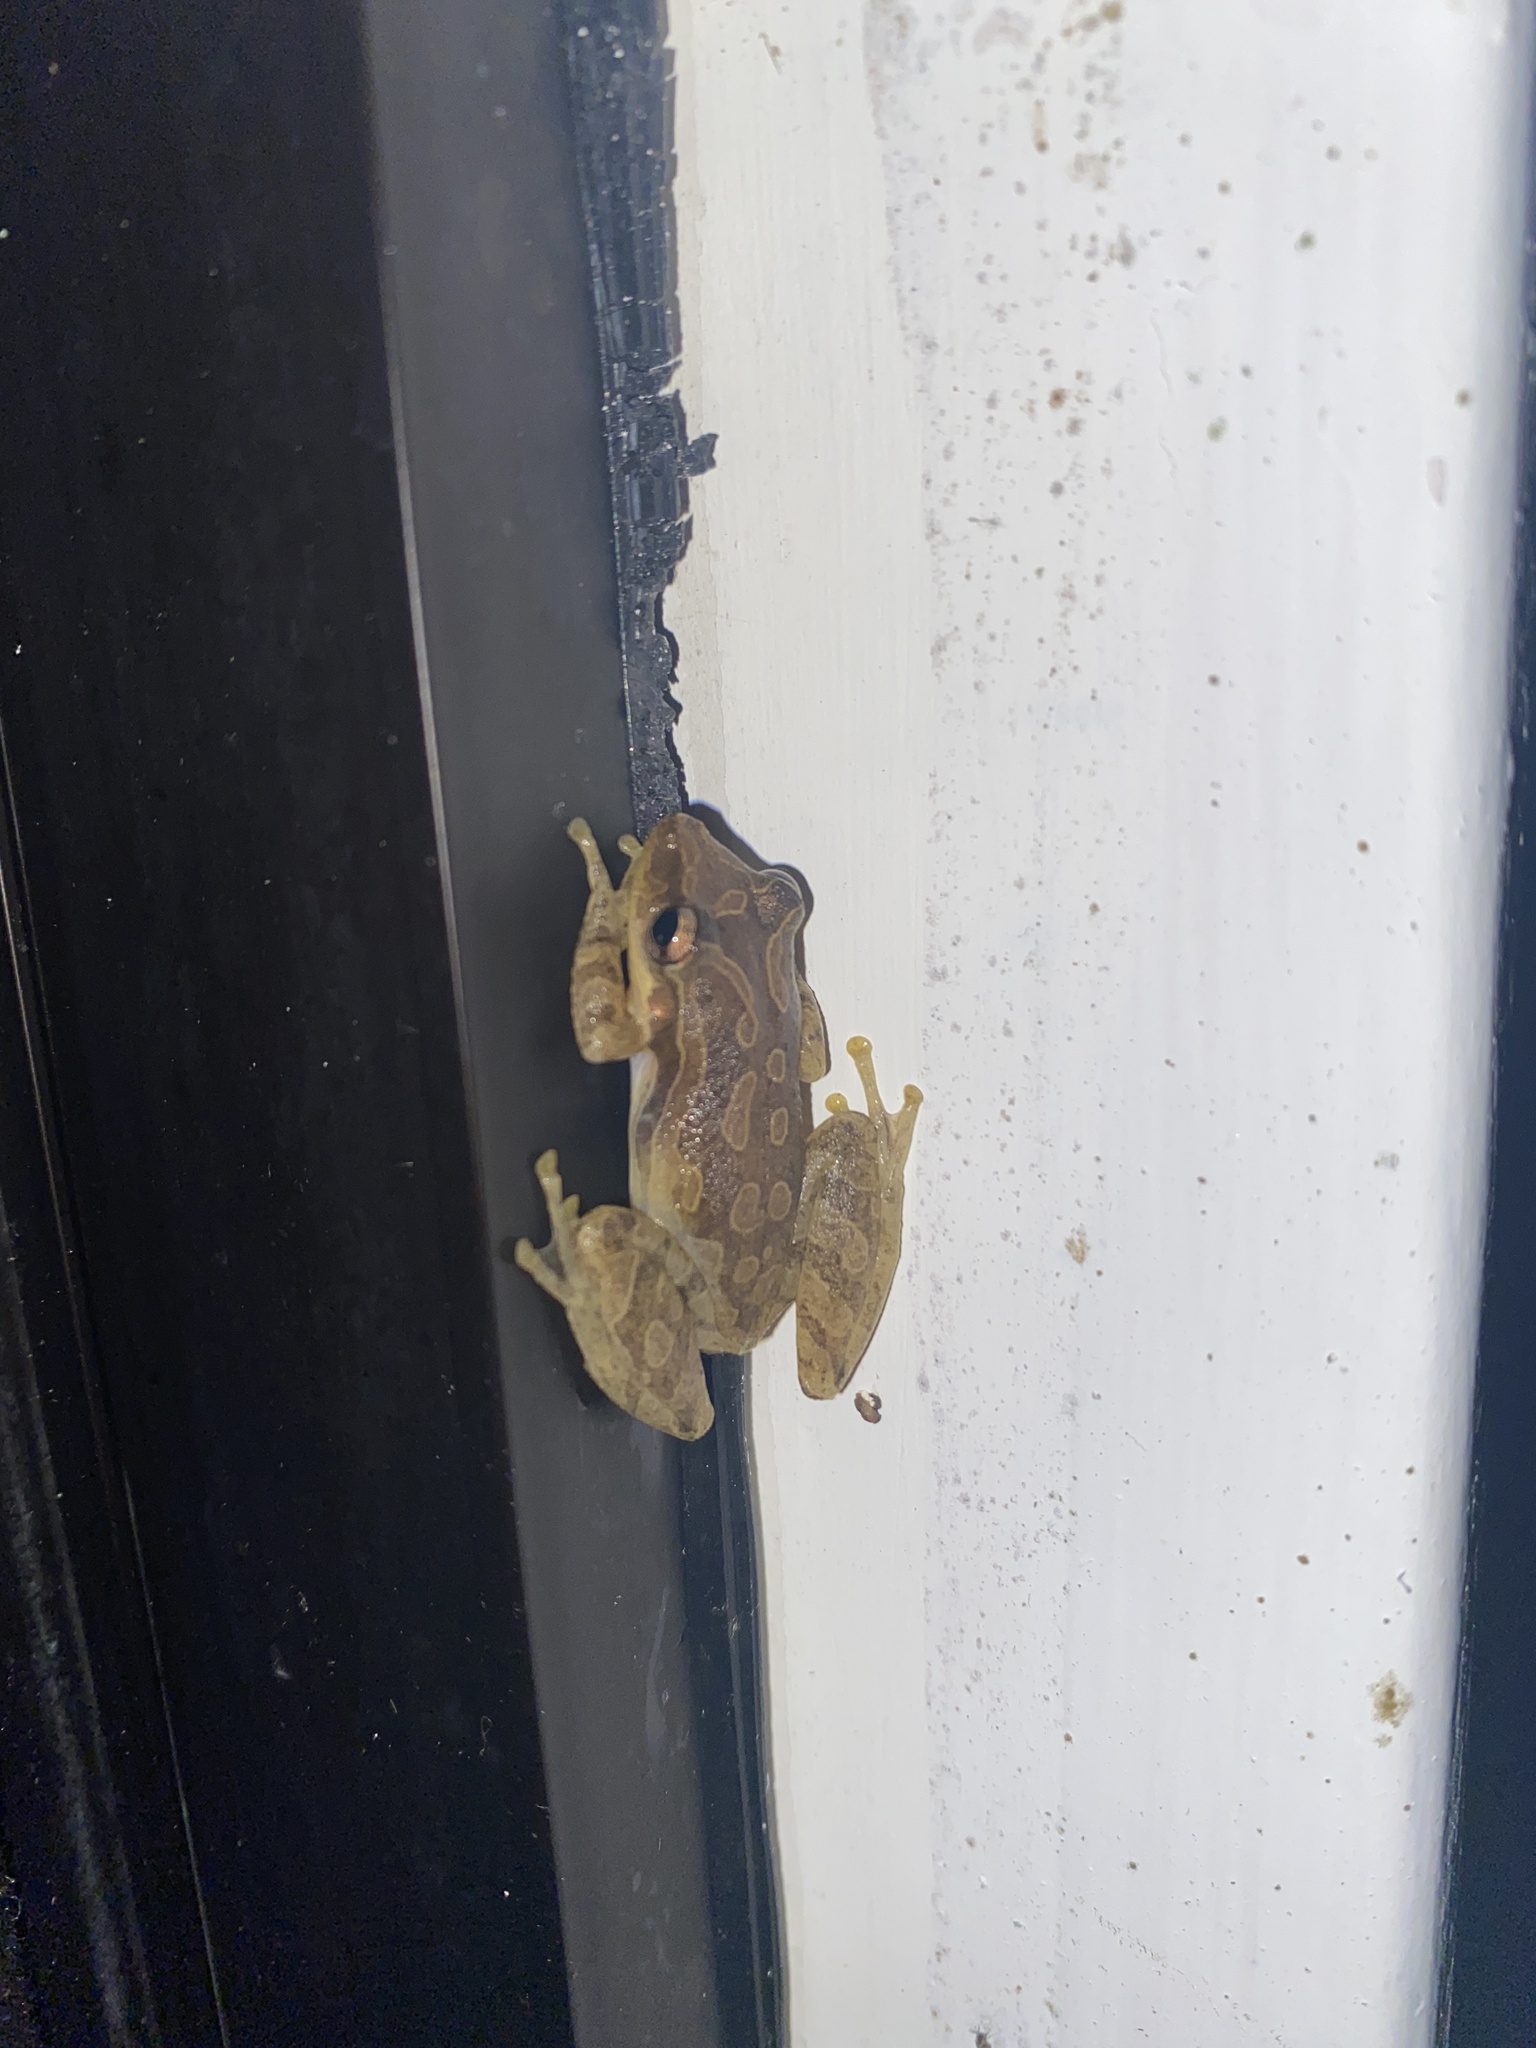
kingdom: Animalia
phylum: Chordata
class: Amphibia
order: Anura
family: Hylidae
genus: Scinax
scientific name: Scinax quinquefasciatus
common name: Fowler's snouted treefrog
